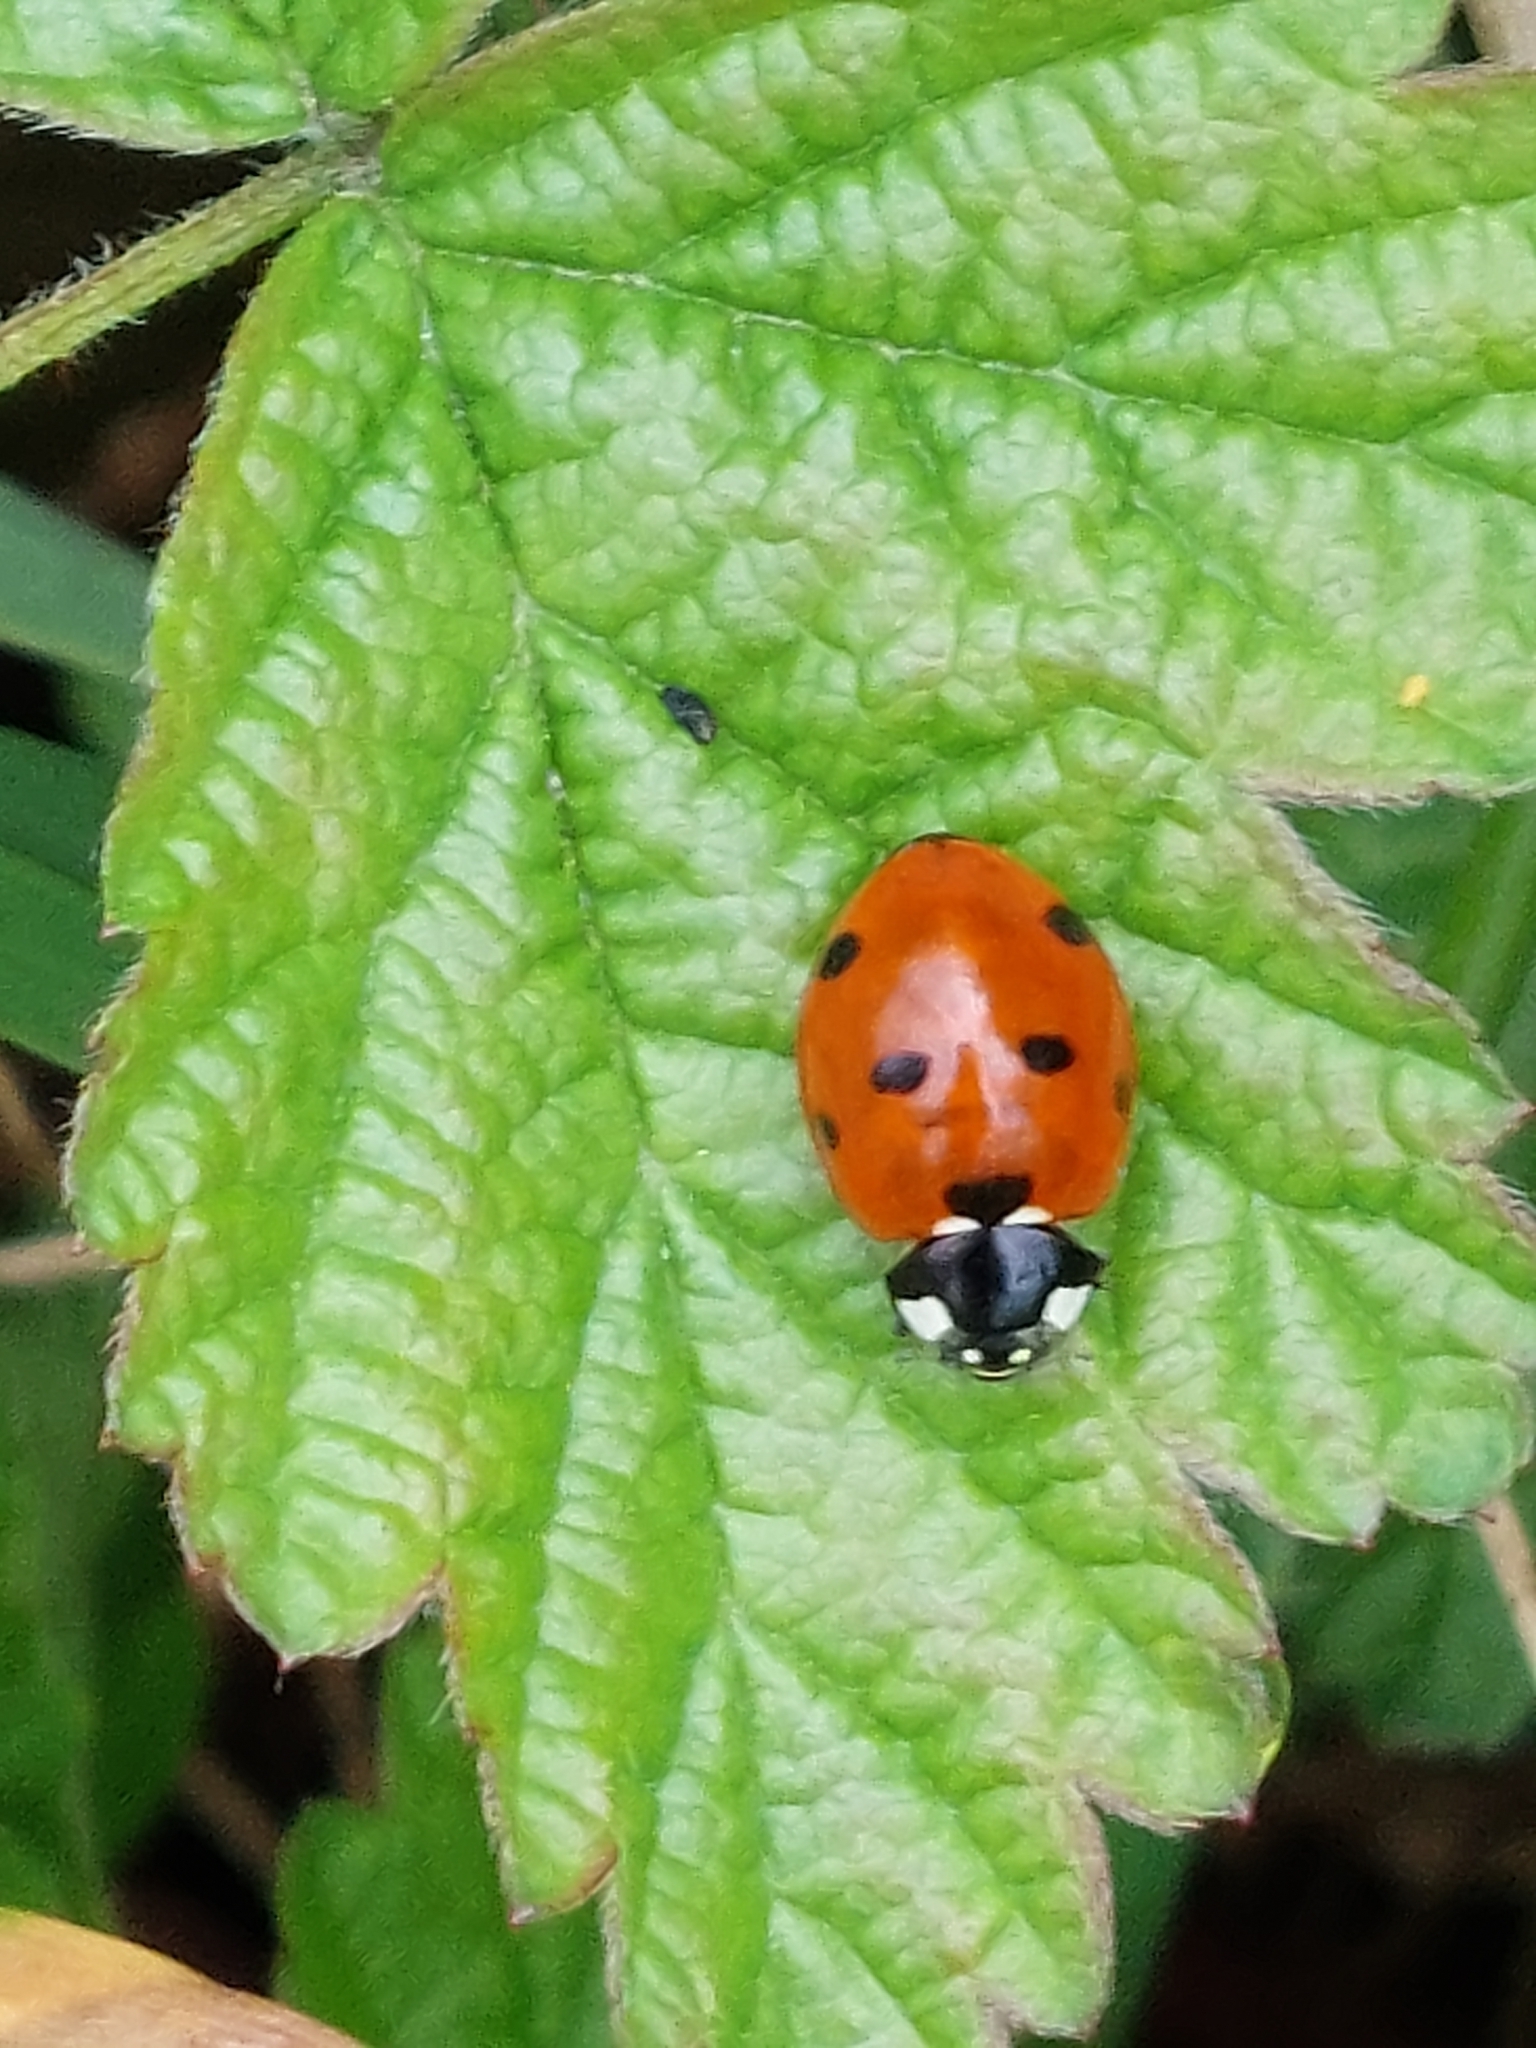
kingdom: Animalia
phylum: Arthropoda
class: Insecta
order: Coleoptera
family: Coccinellidae
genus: Coccinella
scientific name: Coccinella septempunctata
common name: Sevenspotted lady beetle
